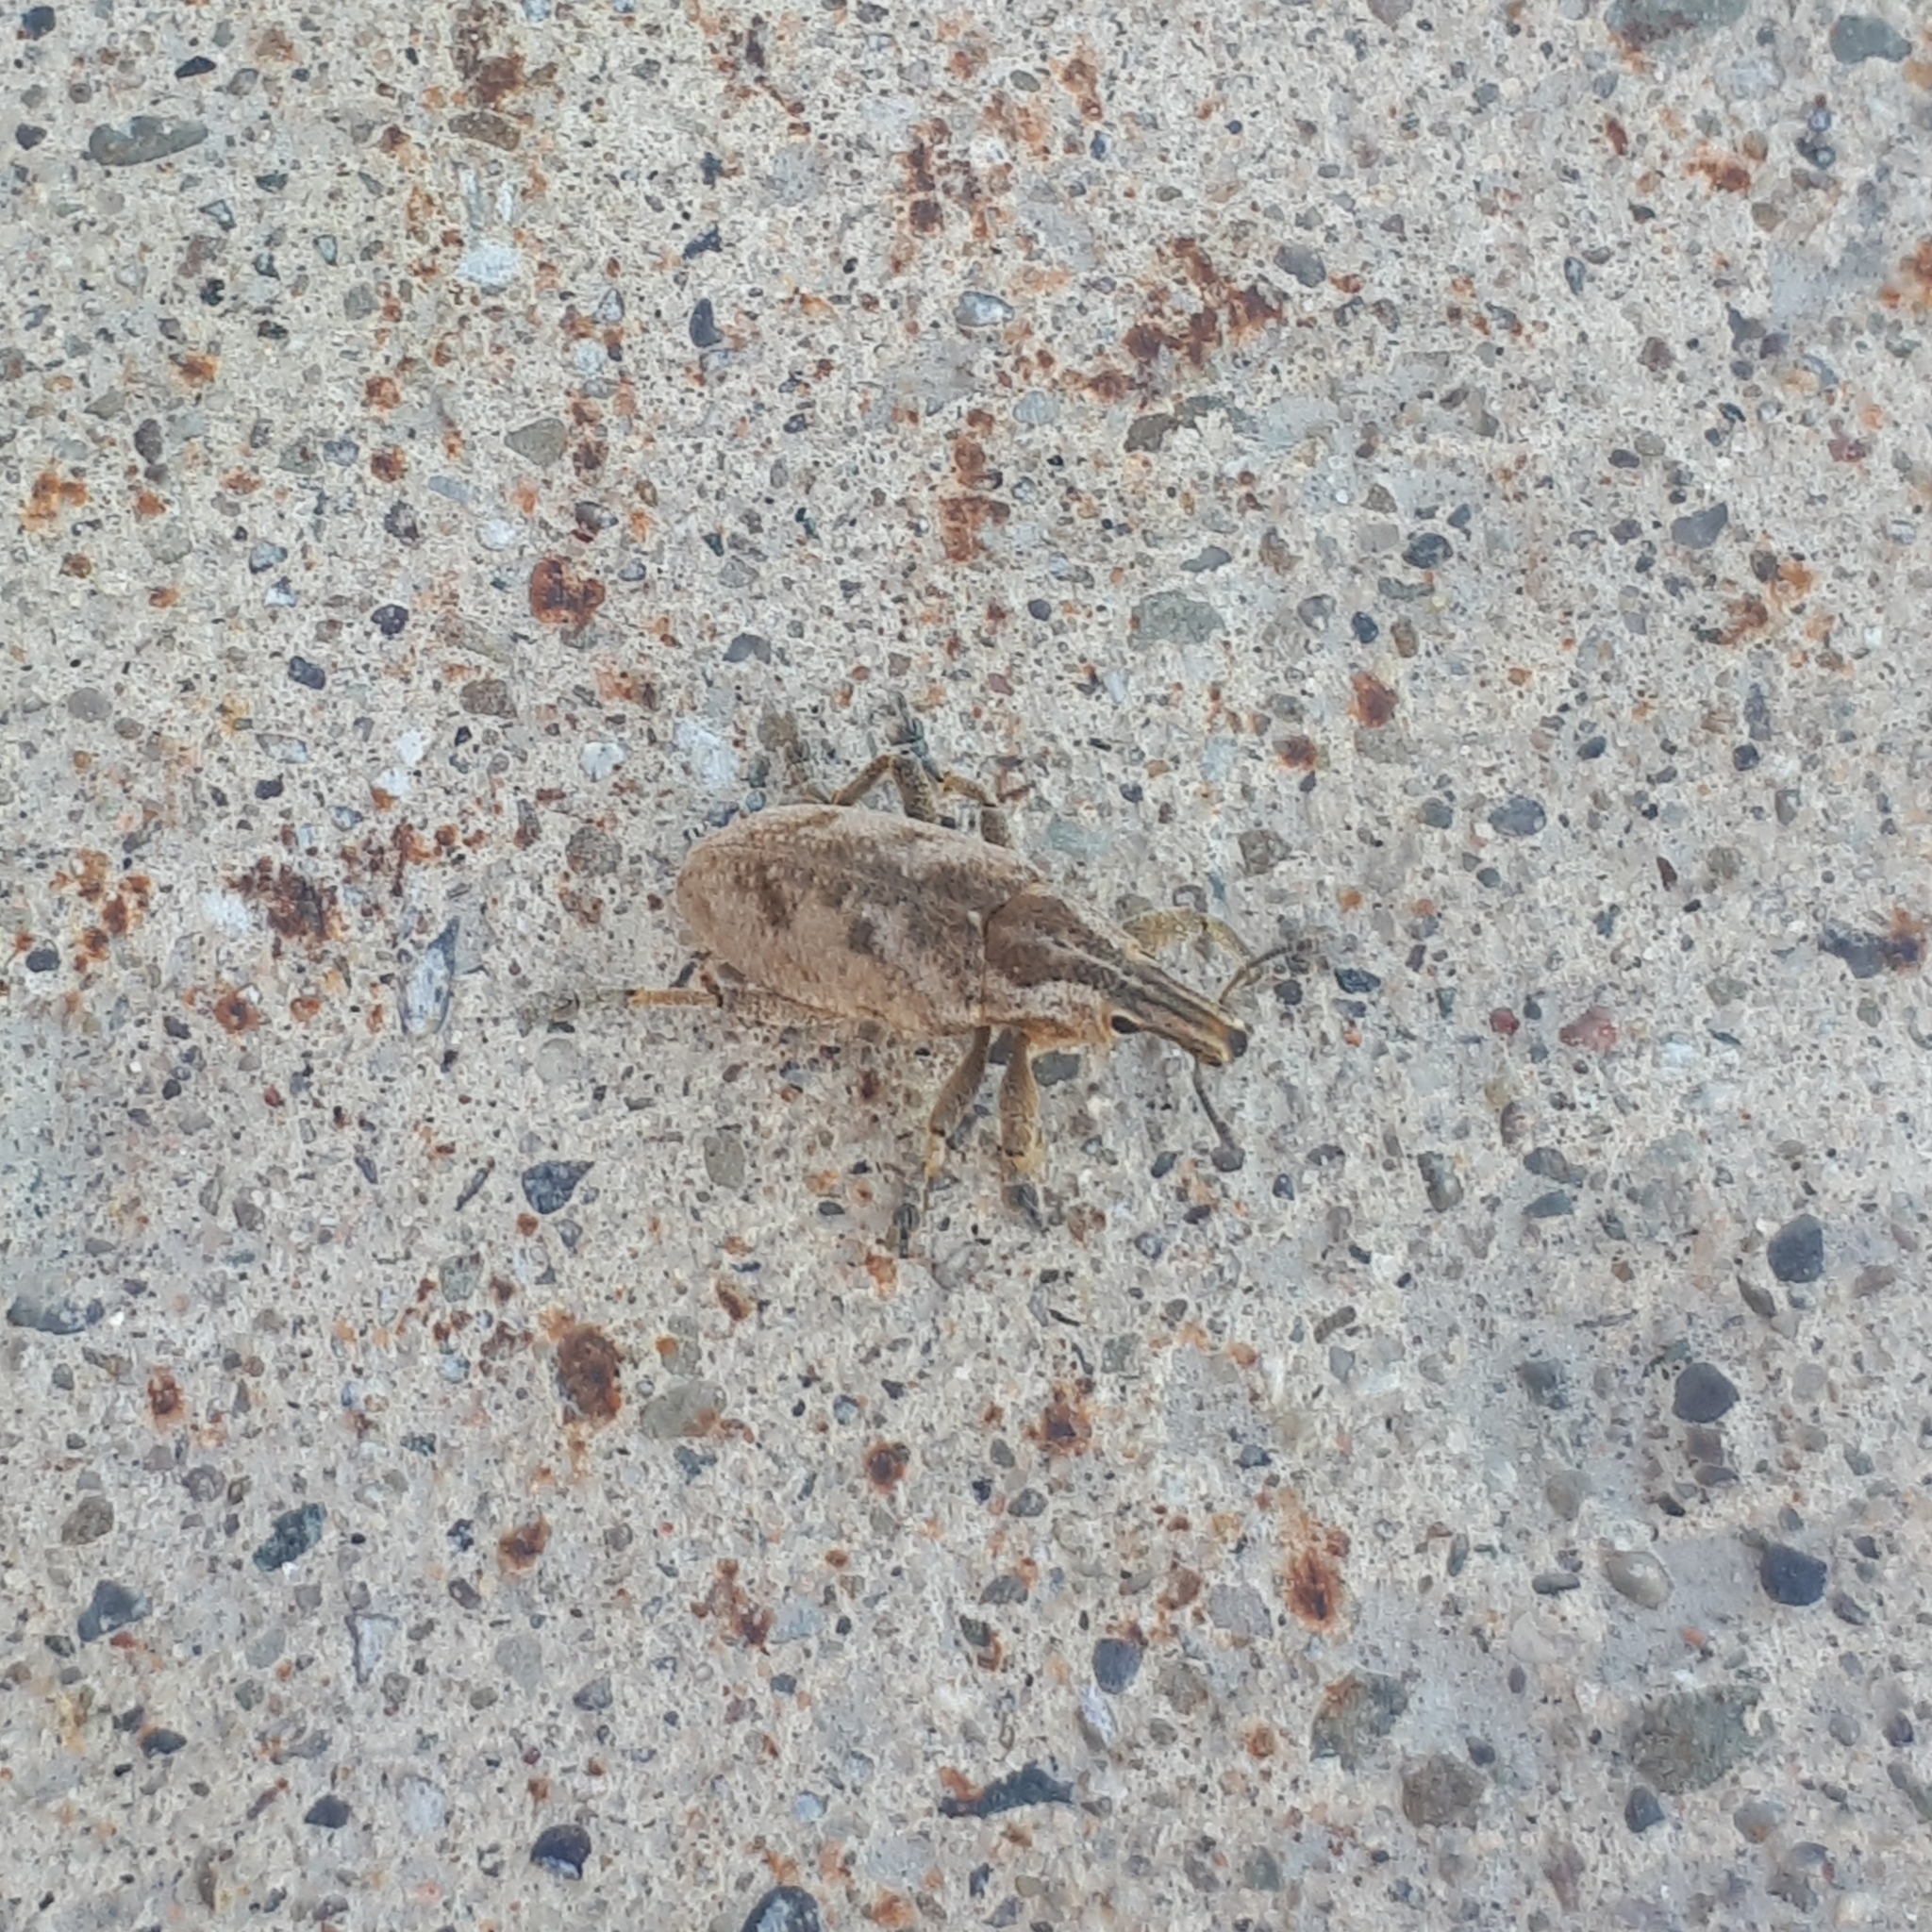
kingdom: Animalia
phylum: Arthropoda
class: Insecta
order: Coleoptera
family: Curculionidae
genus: Cleonis
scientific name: Cleonis pigra
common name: Large thistle weevil
